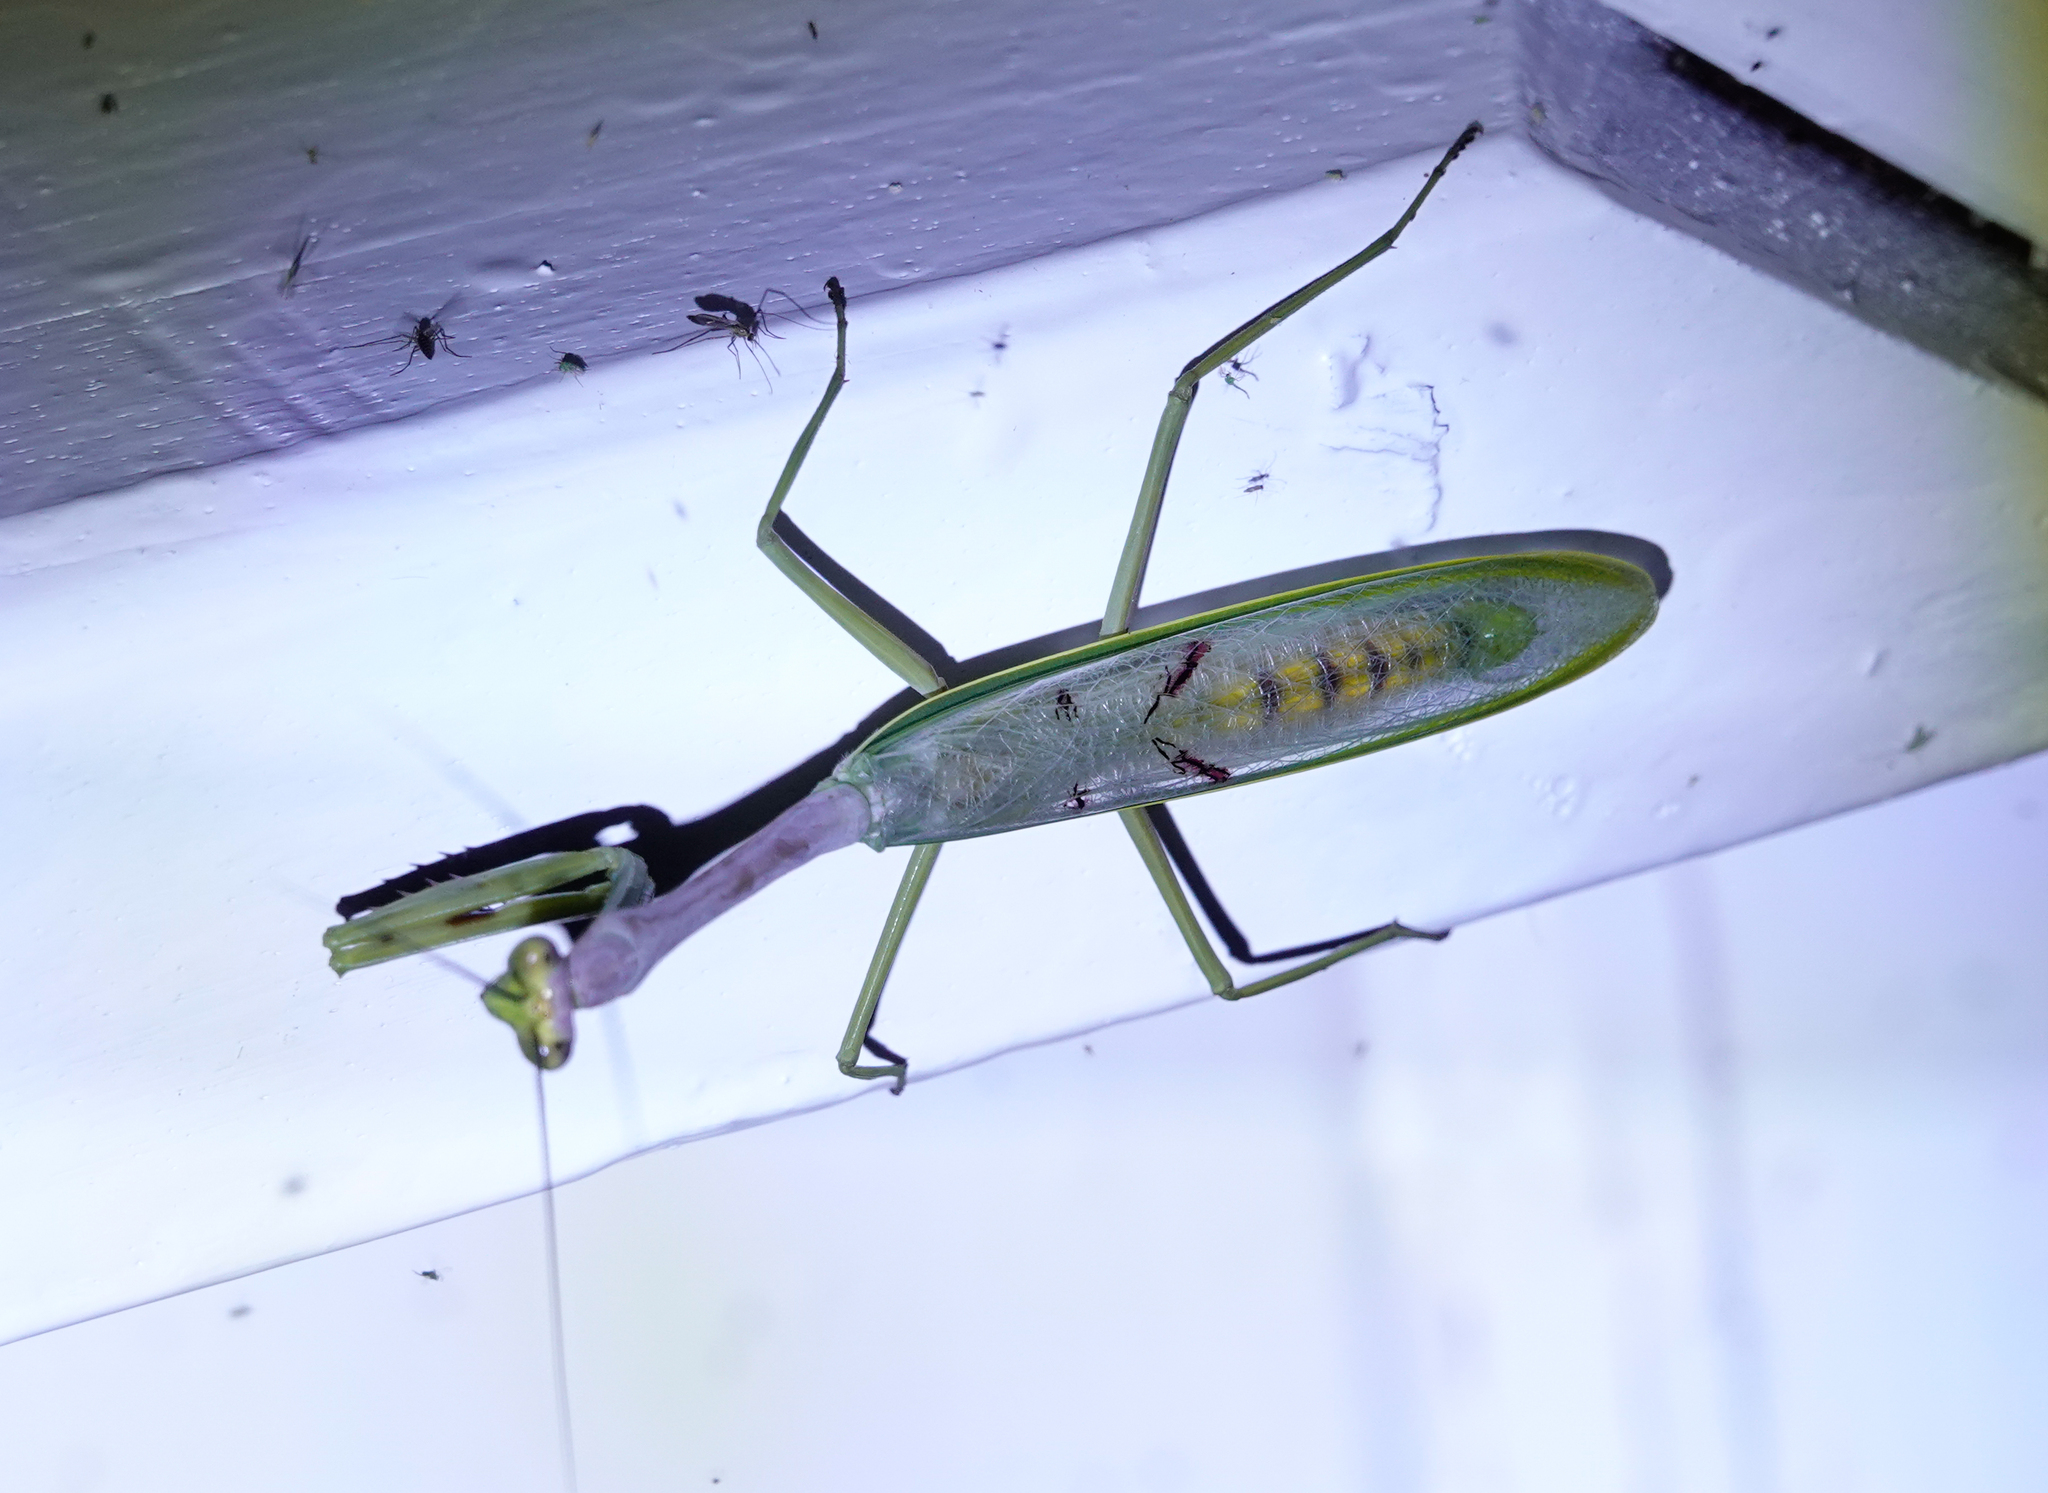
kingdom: Animalia
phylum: Arthropoda
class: Insecta
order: Mantodea
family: Mantidae
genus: Stagmatoptera
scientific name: Stagmatoptera supplicaria
